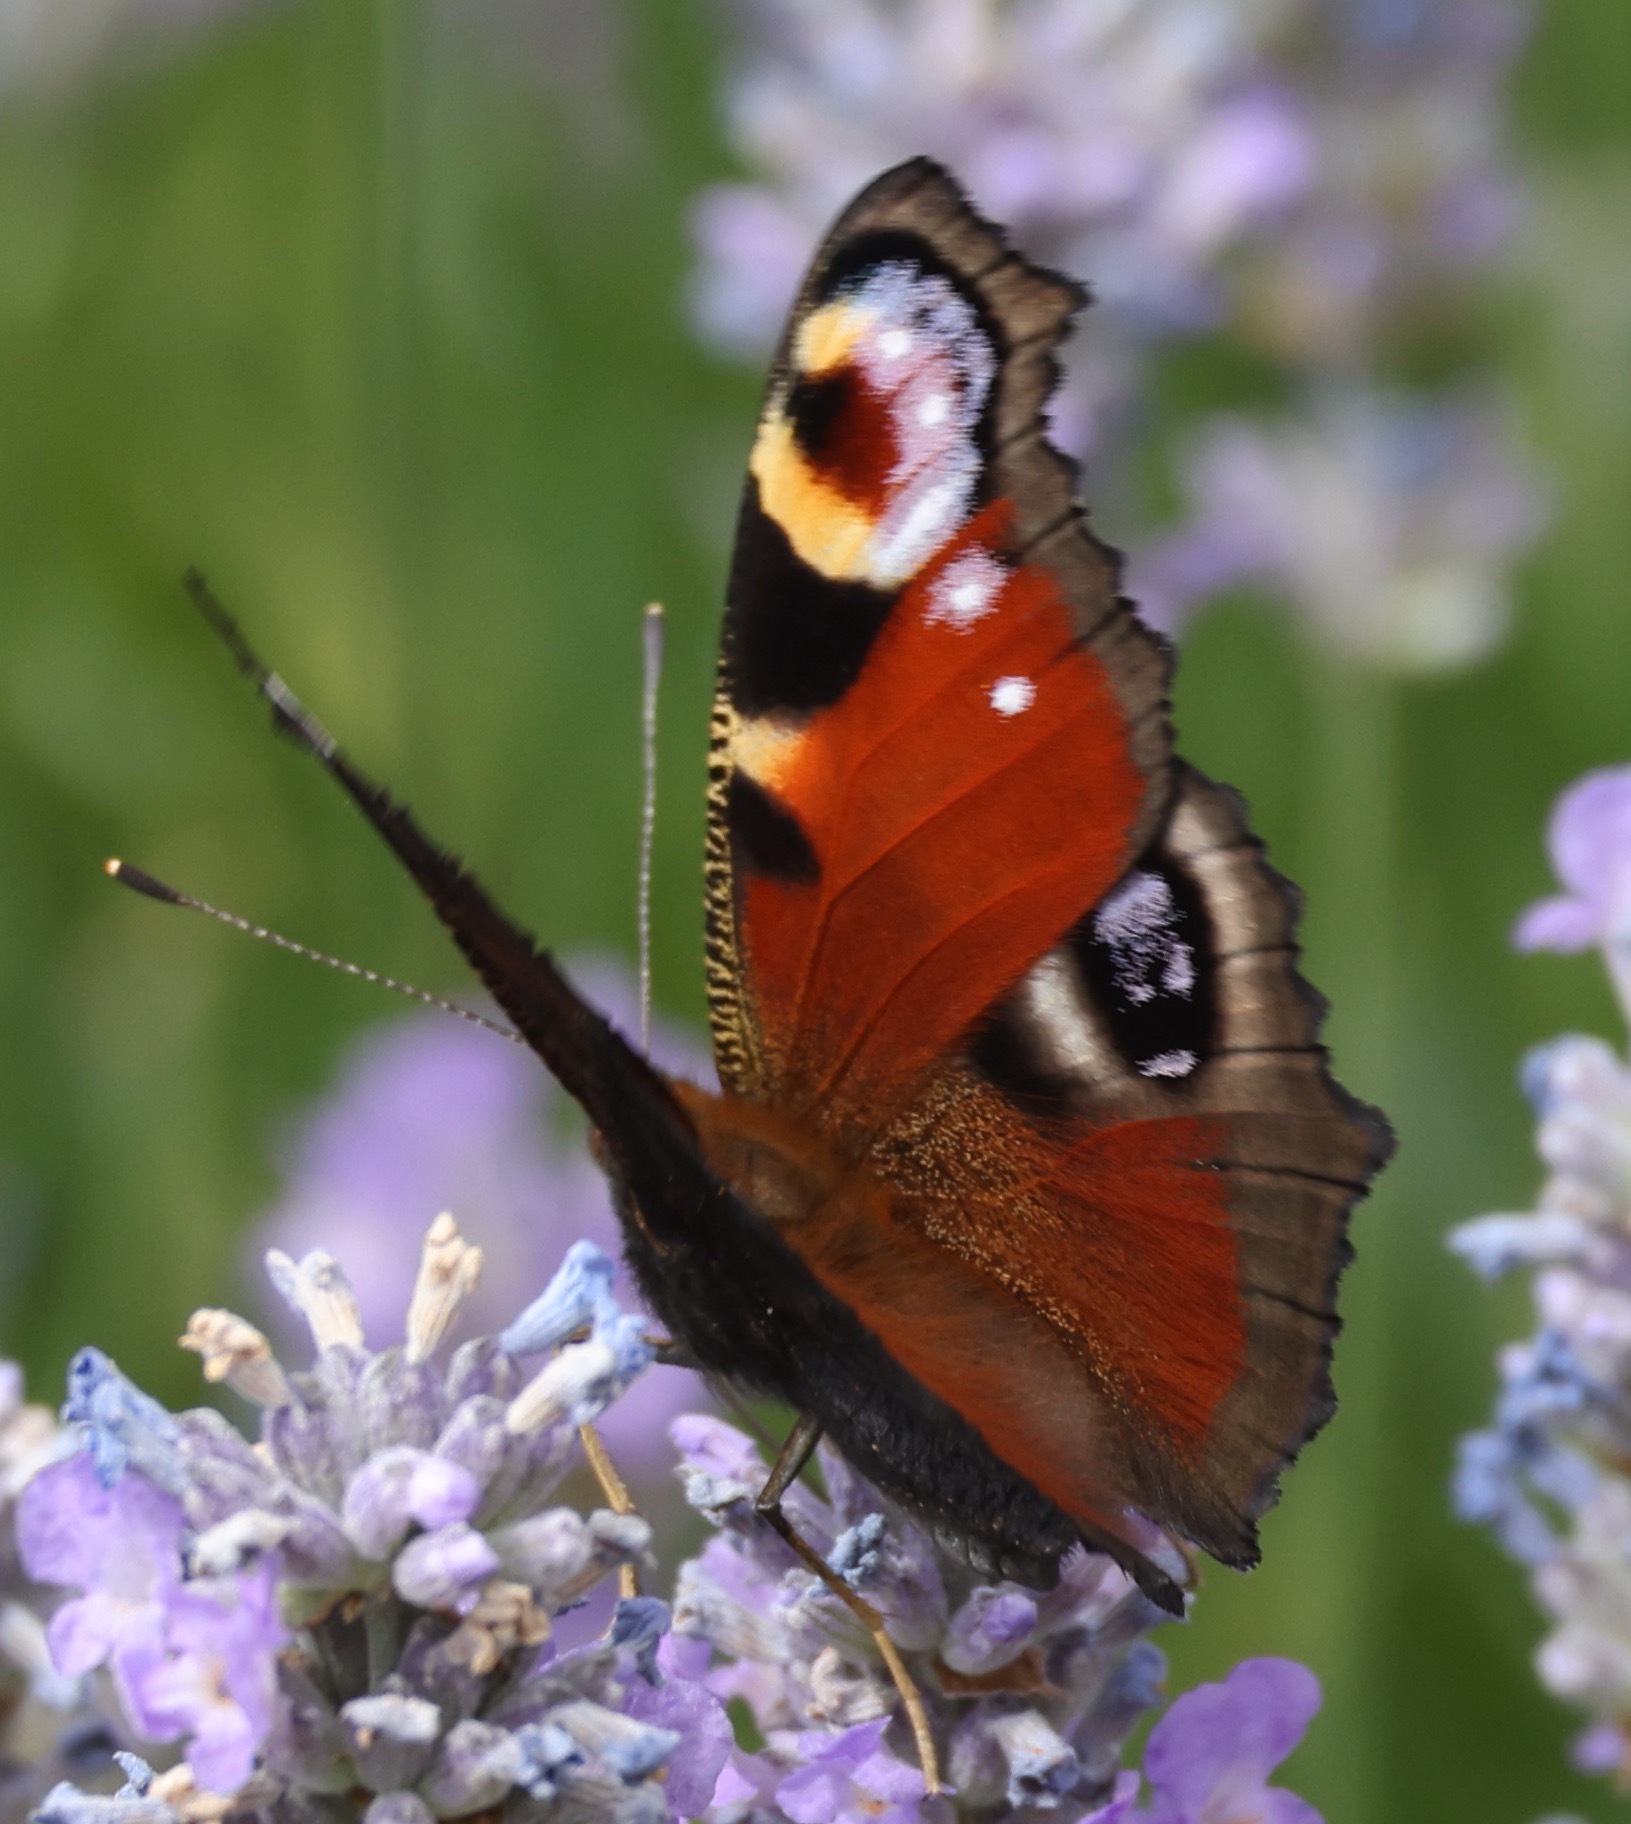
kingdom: Animalia
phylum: Arthropoda
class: Insecta
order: Lepidoptera
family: Nymphalidae
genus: Aglais
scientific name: Aglais io
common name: Peacock
